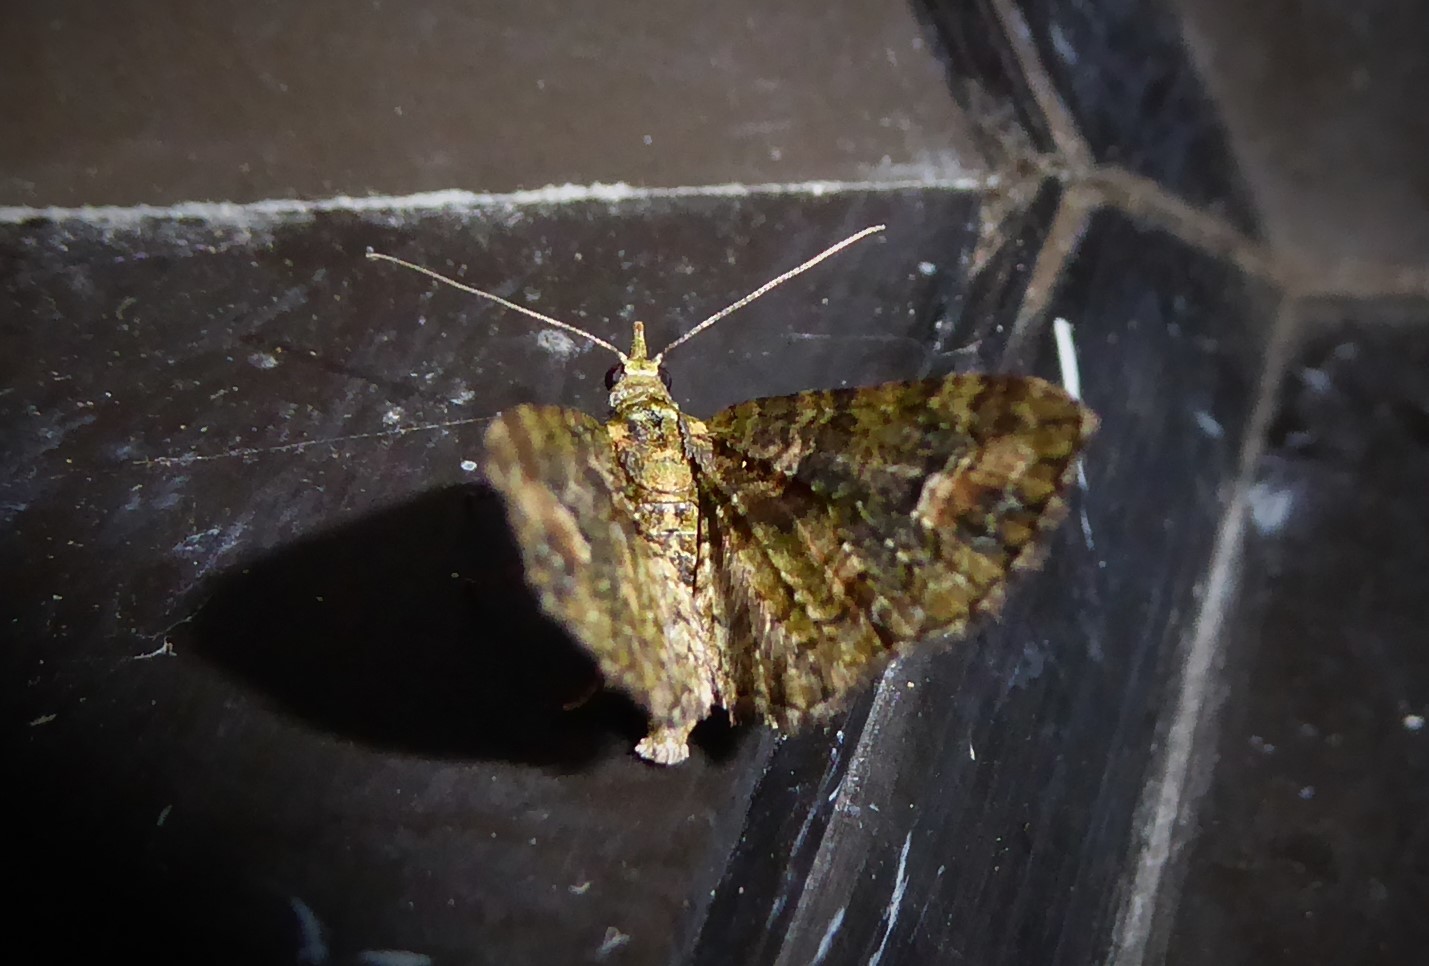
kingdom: Animalia
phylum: Arthropoda
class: Insecta
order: Lepidoptera
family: Geometridae
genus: Idaea
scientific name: Idaea mutanda
